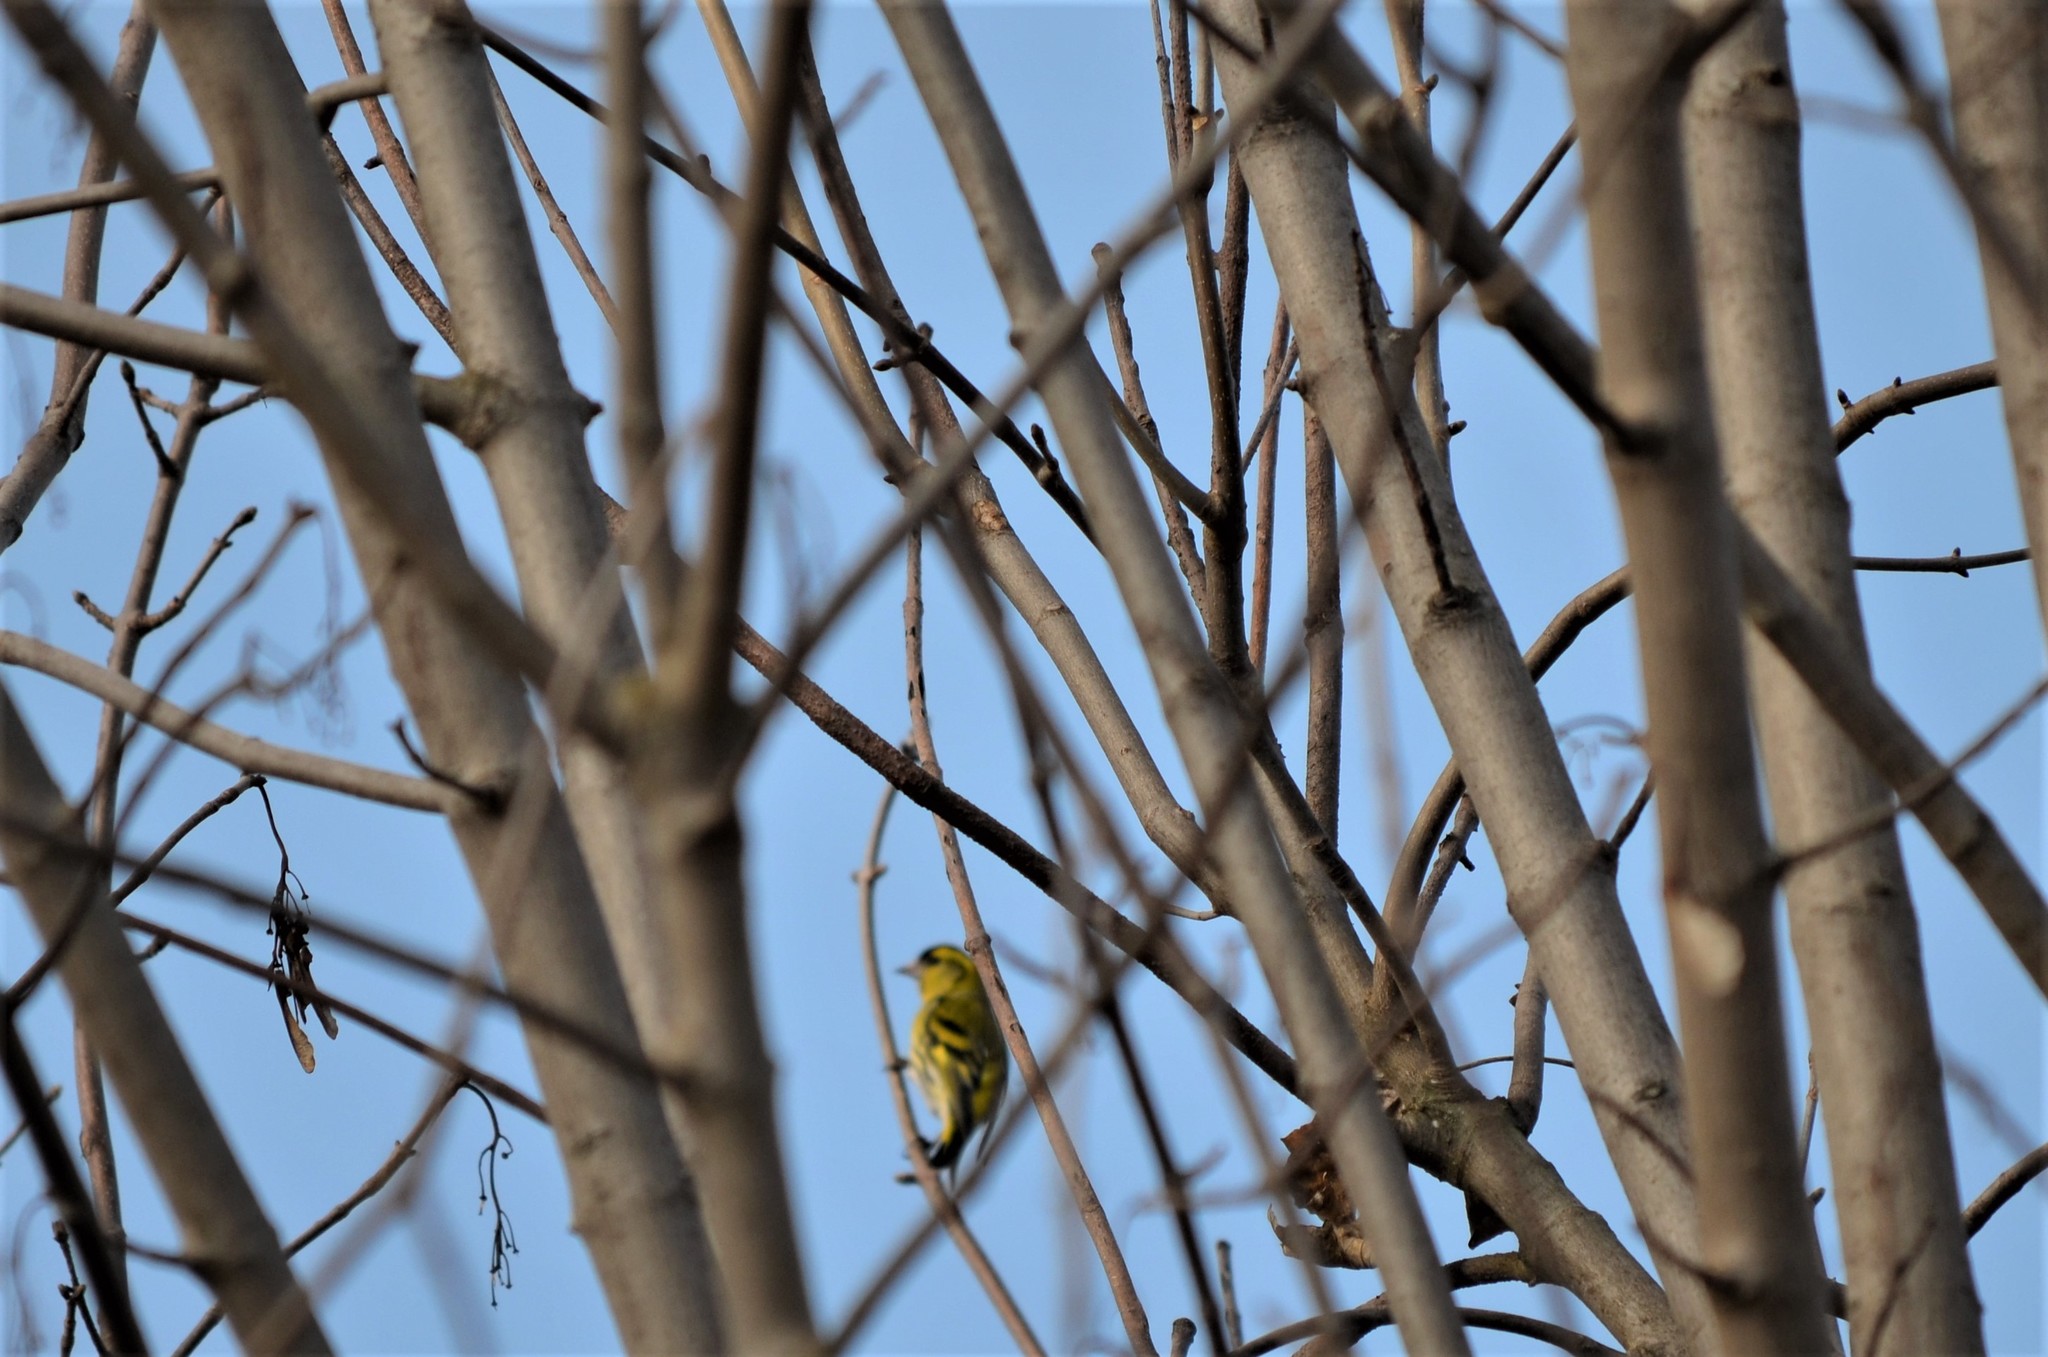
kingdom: Animalia
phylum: Chordata
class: Aves
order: Passeriformes
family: Fringillidae
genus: Spinus
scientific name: Spinus spinus
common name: Eurasian siskin
